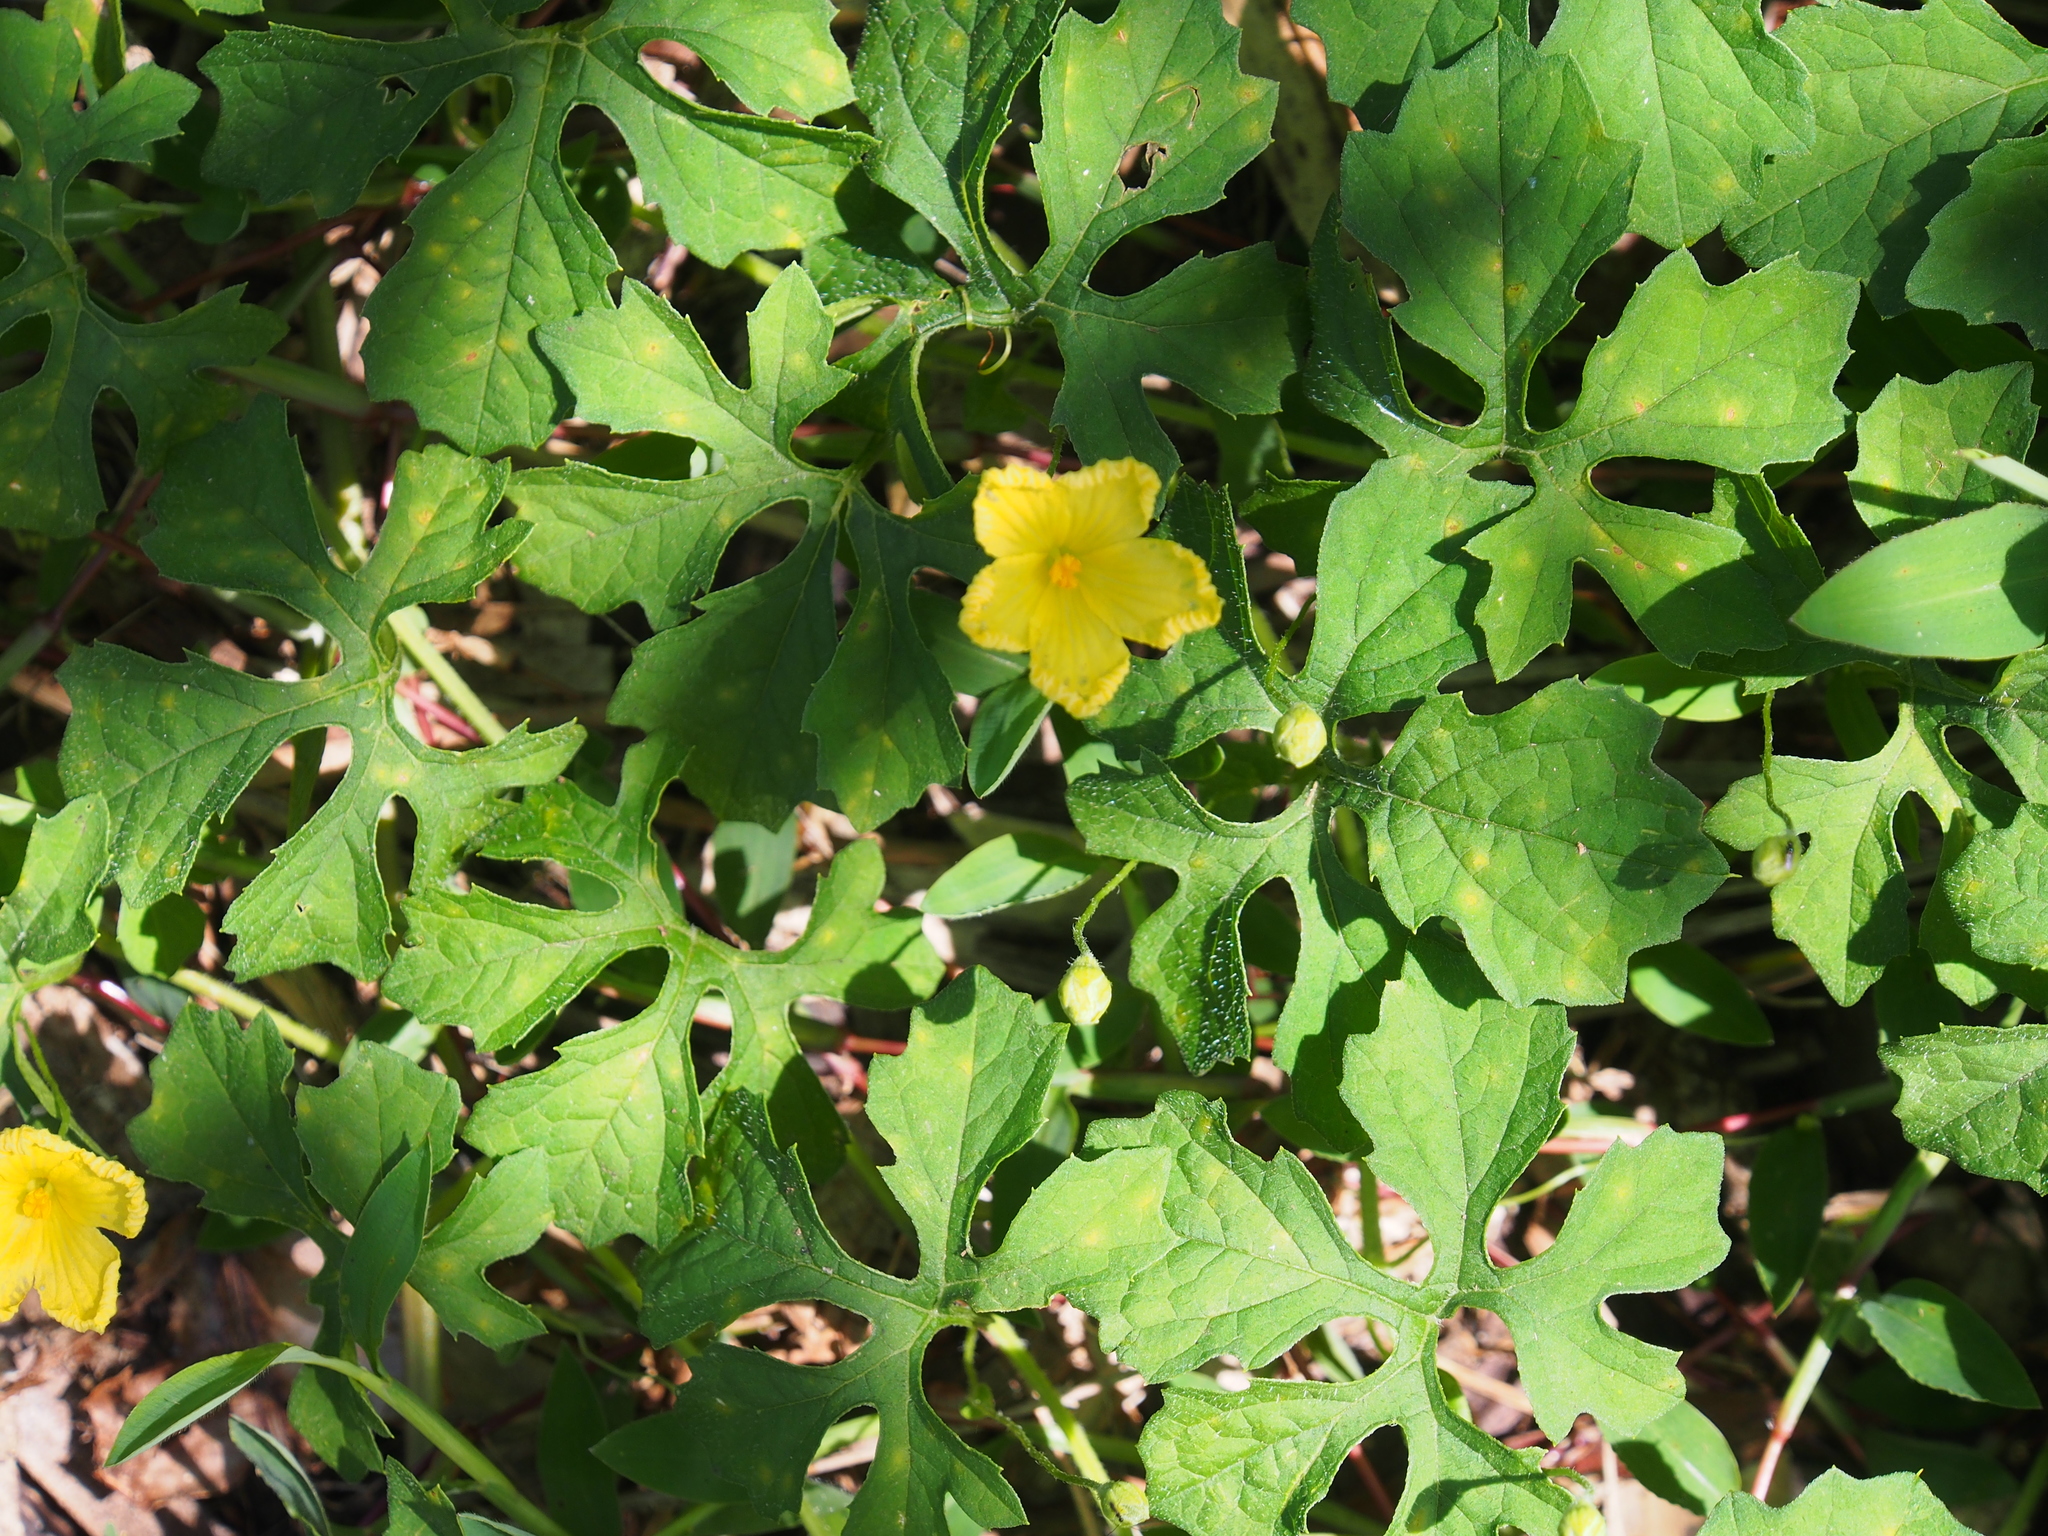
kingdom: Plantae
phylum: Tracheophyta
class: Magnoliopsida
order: Cucurbitales
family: Cucurbitaceae
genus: Momordica
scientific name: Momordica charantia
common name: Balsampear
